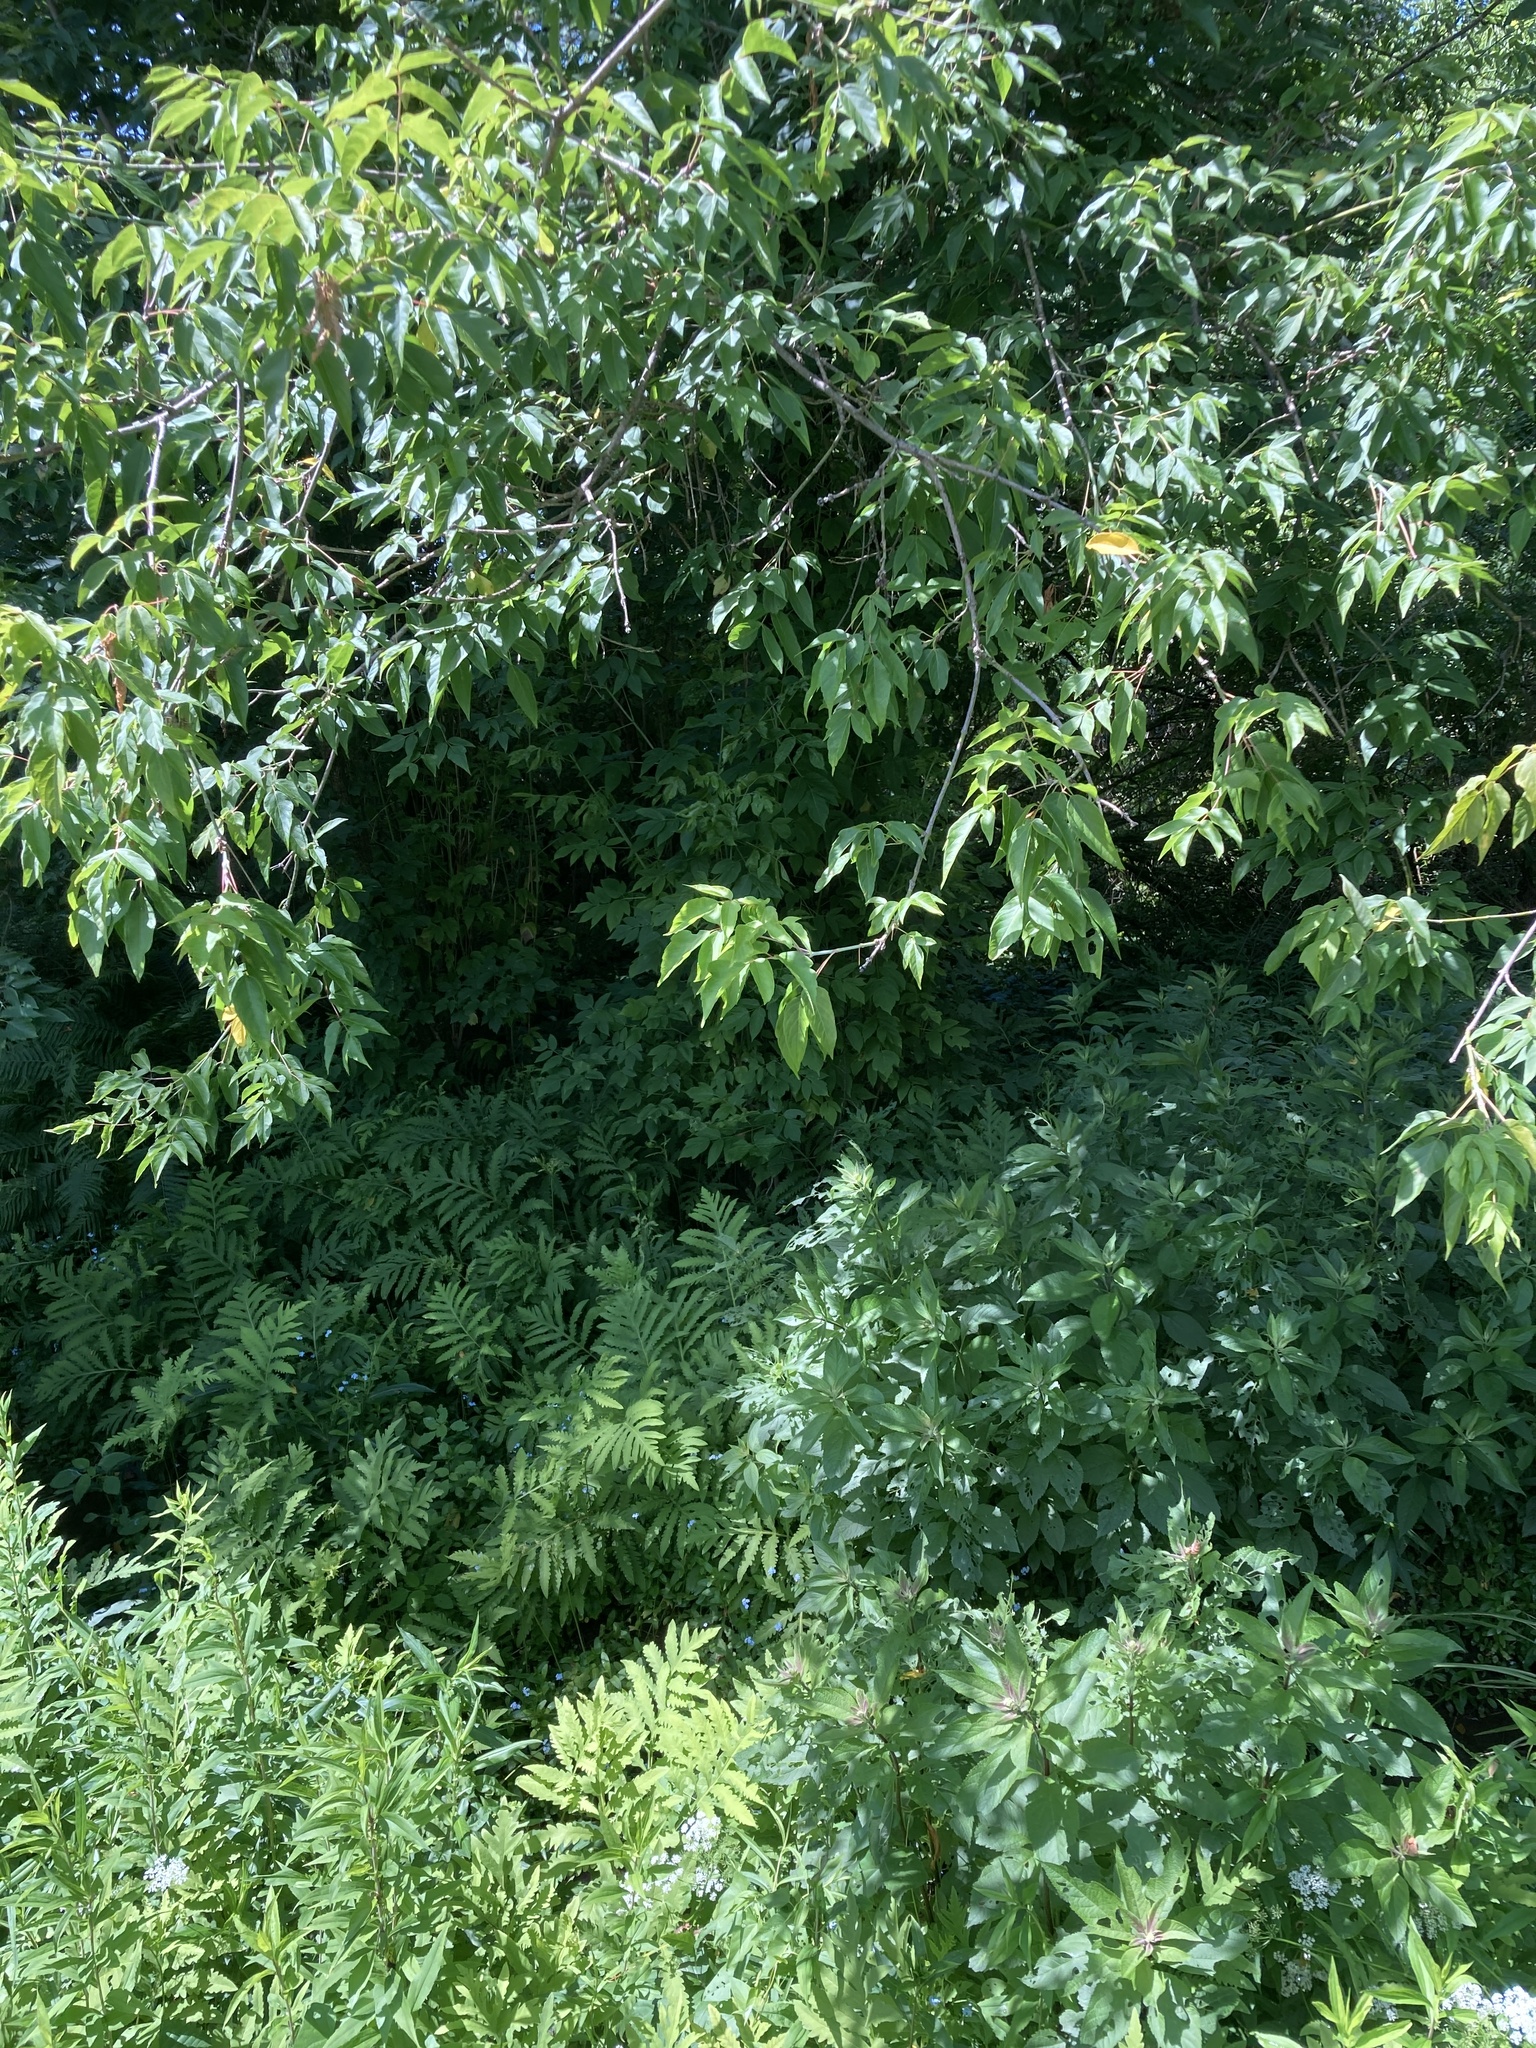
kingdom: Plantae
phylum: Tracheophyta
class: Magnoliopsida
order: Sapindales
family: Sapindaceae
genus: Acer
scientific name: Acer negundo
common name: Ashleaf maple
